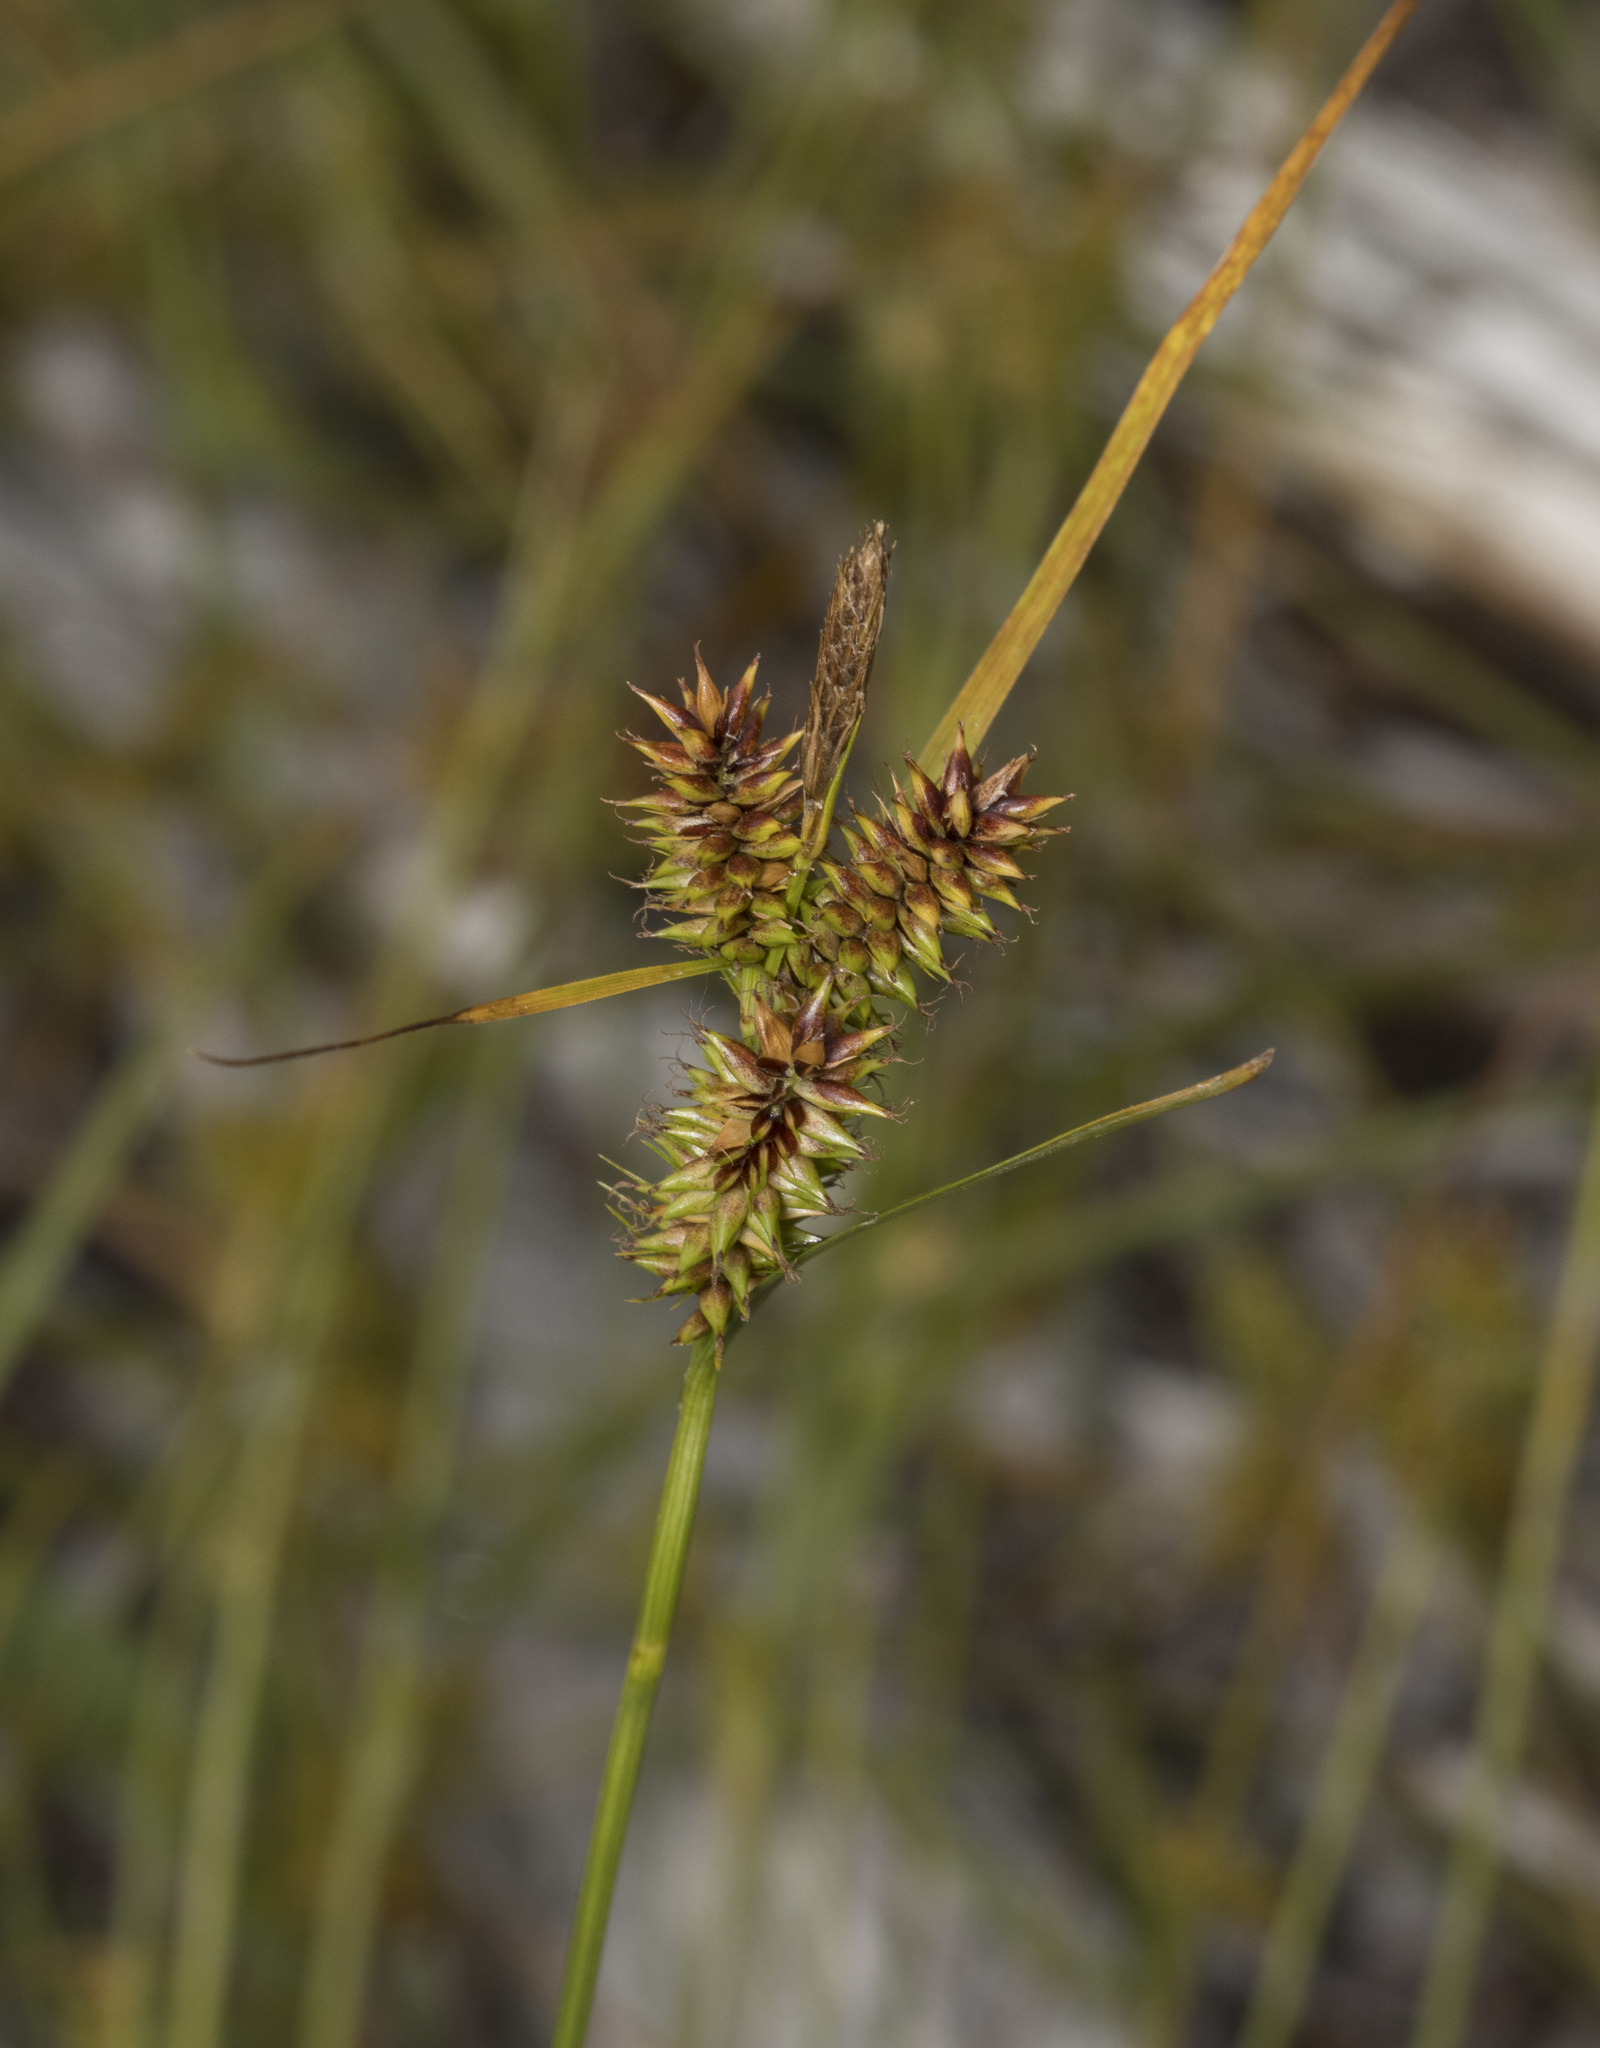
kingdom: Plantae
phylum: Tracheophyta
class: Liliopsida
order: Poales
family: Cyperaceae
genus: Carex
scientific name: Carex fuscula
